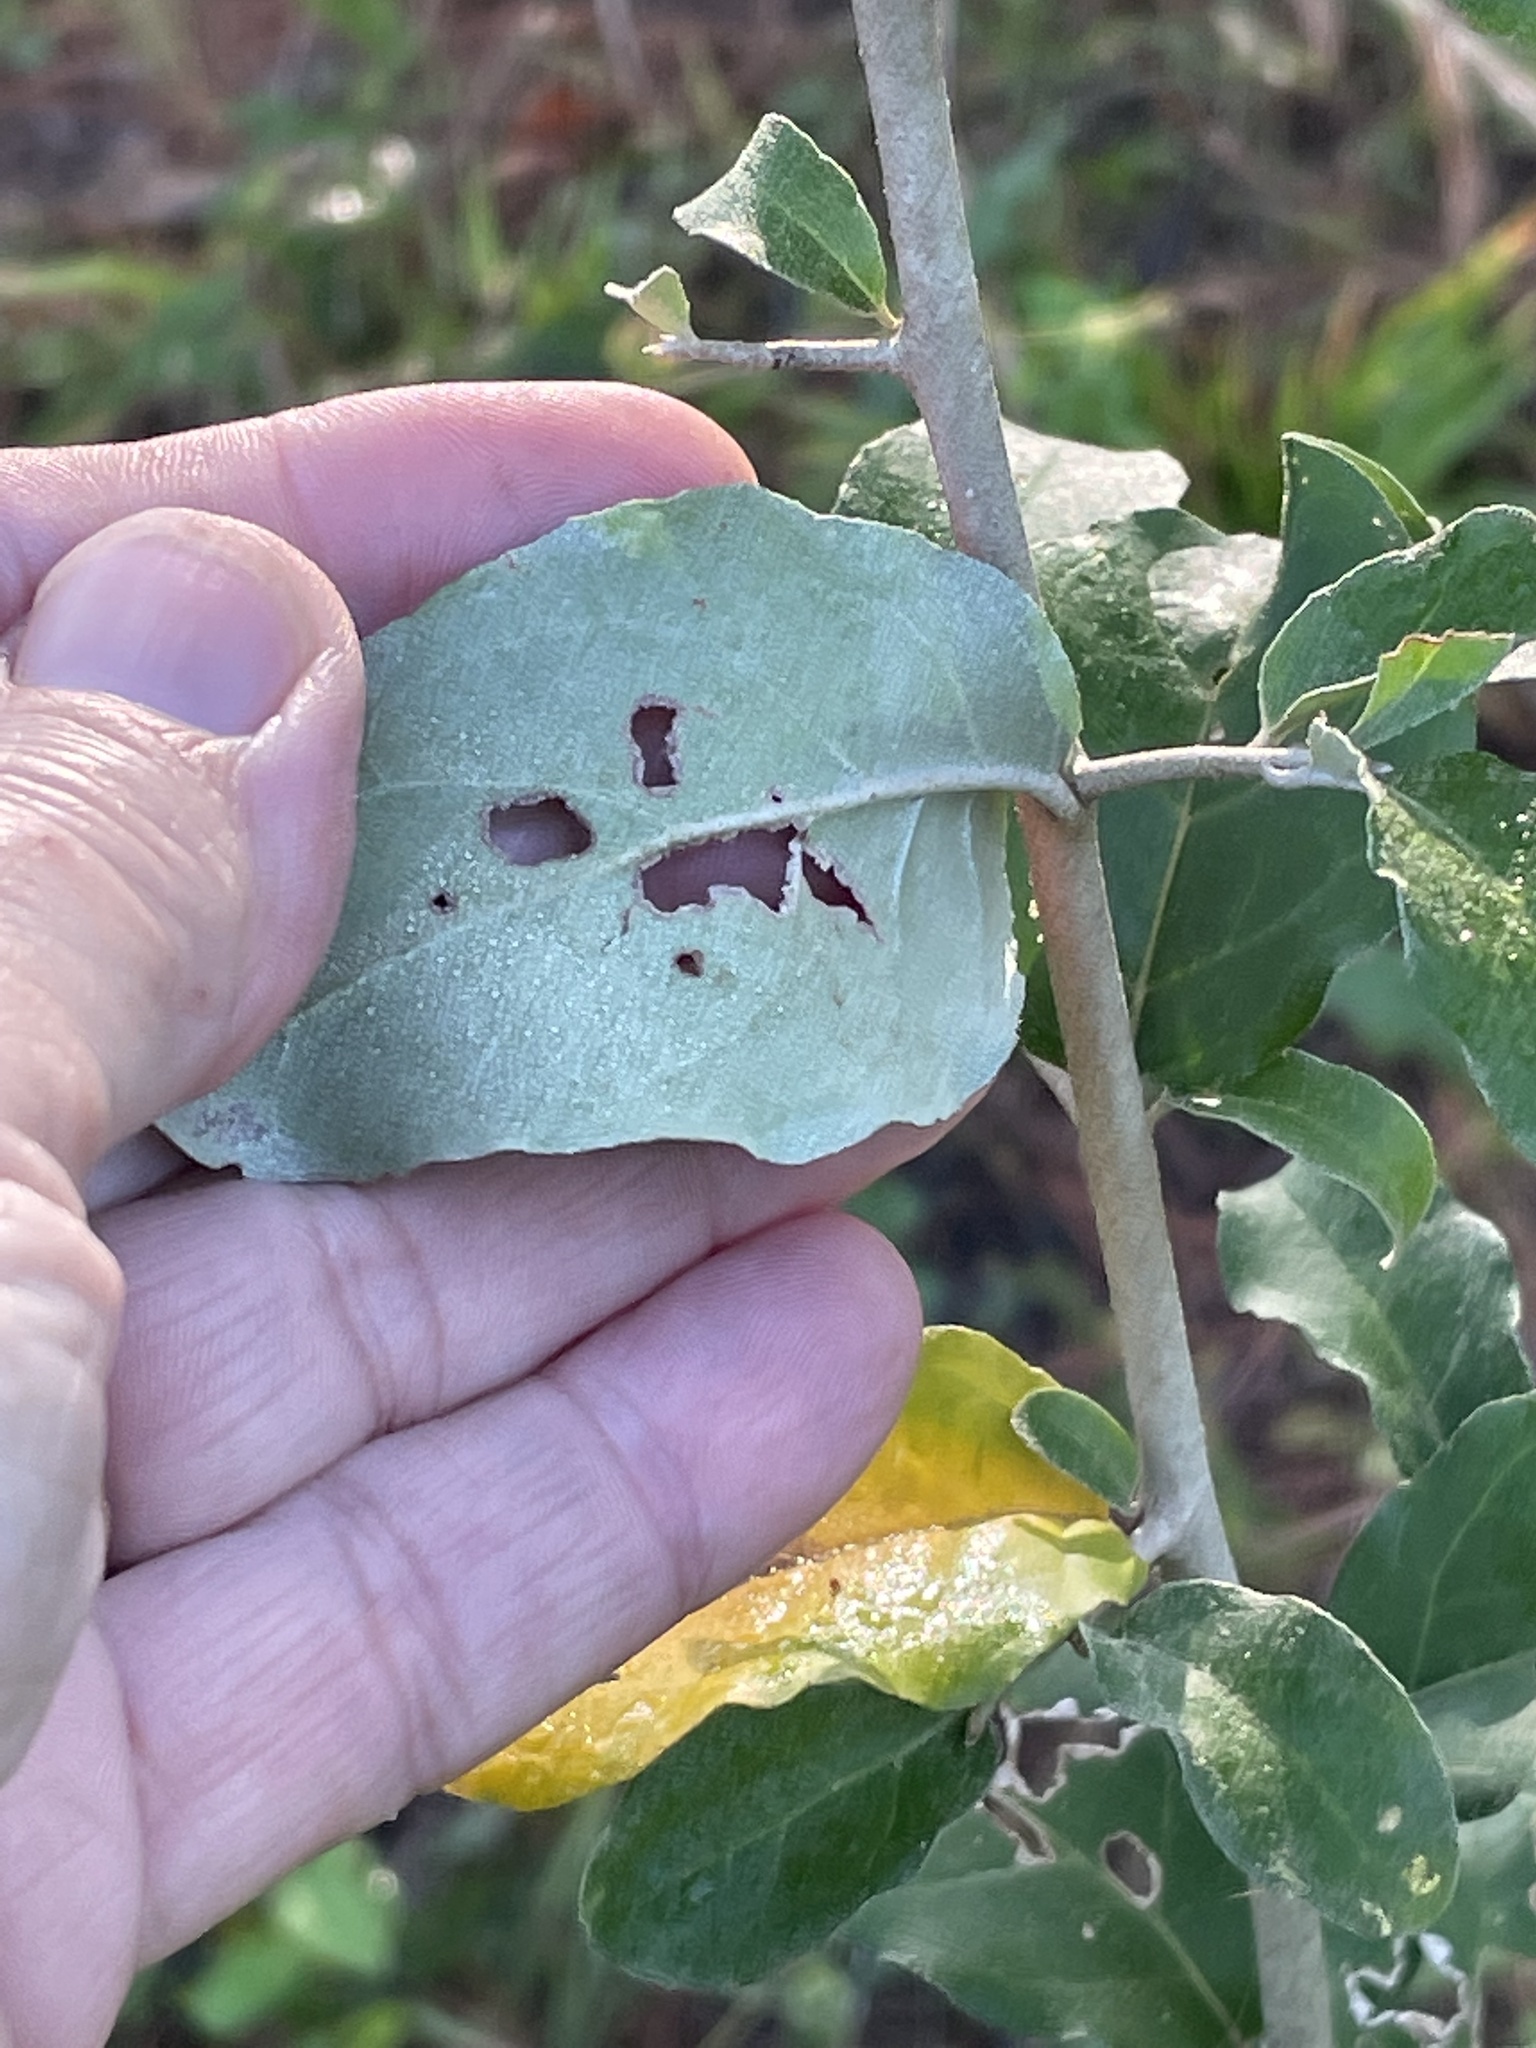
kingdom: Plantae
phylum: Tracheophyta
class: Magnoliopsida
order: Rosales
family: Elaeagnaceae
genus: Elaeagnus
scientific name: Elaeagnus umbellata
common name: Autumn olive
